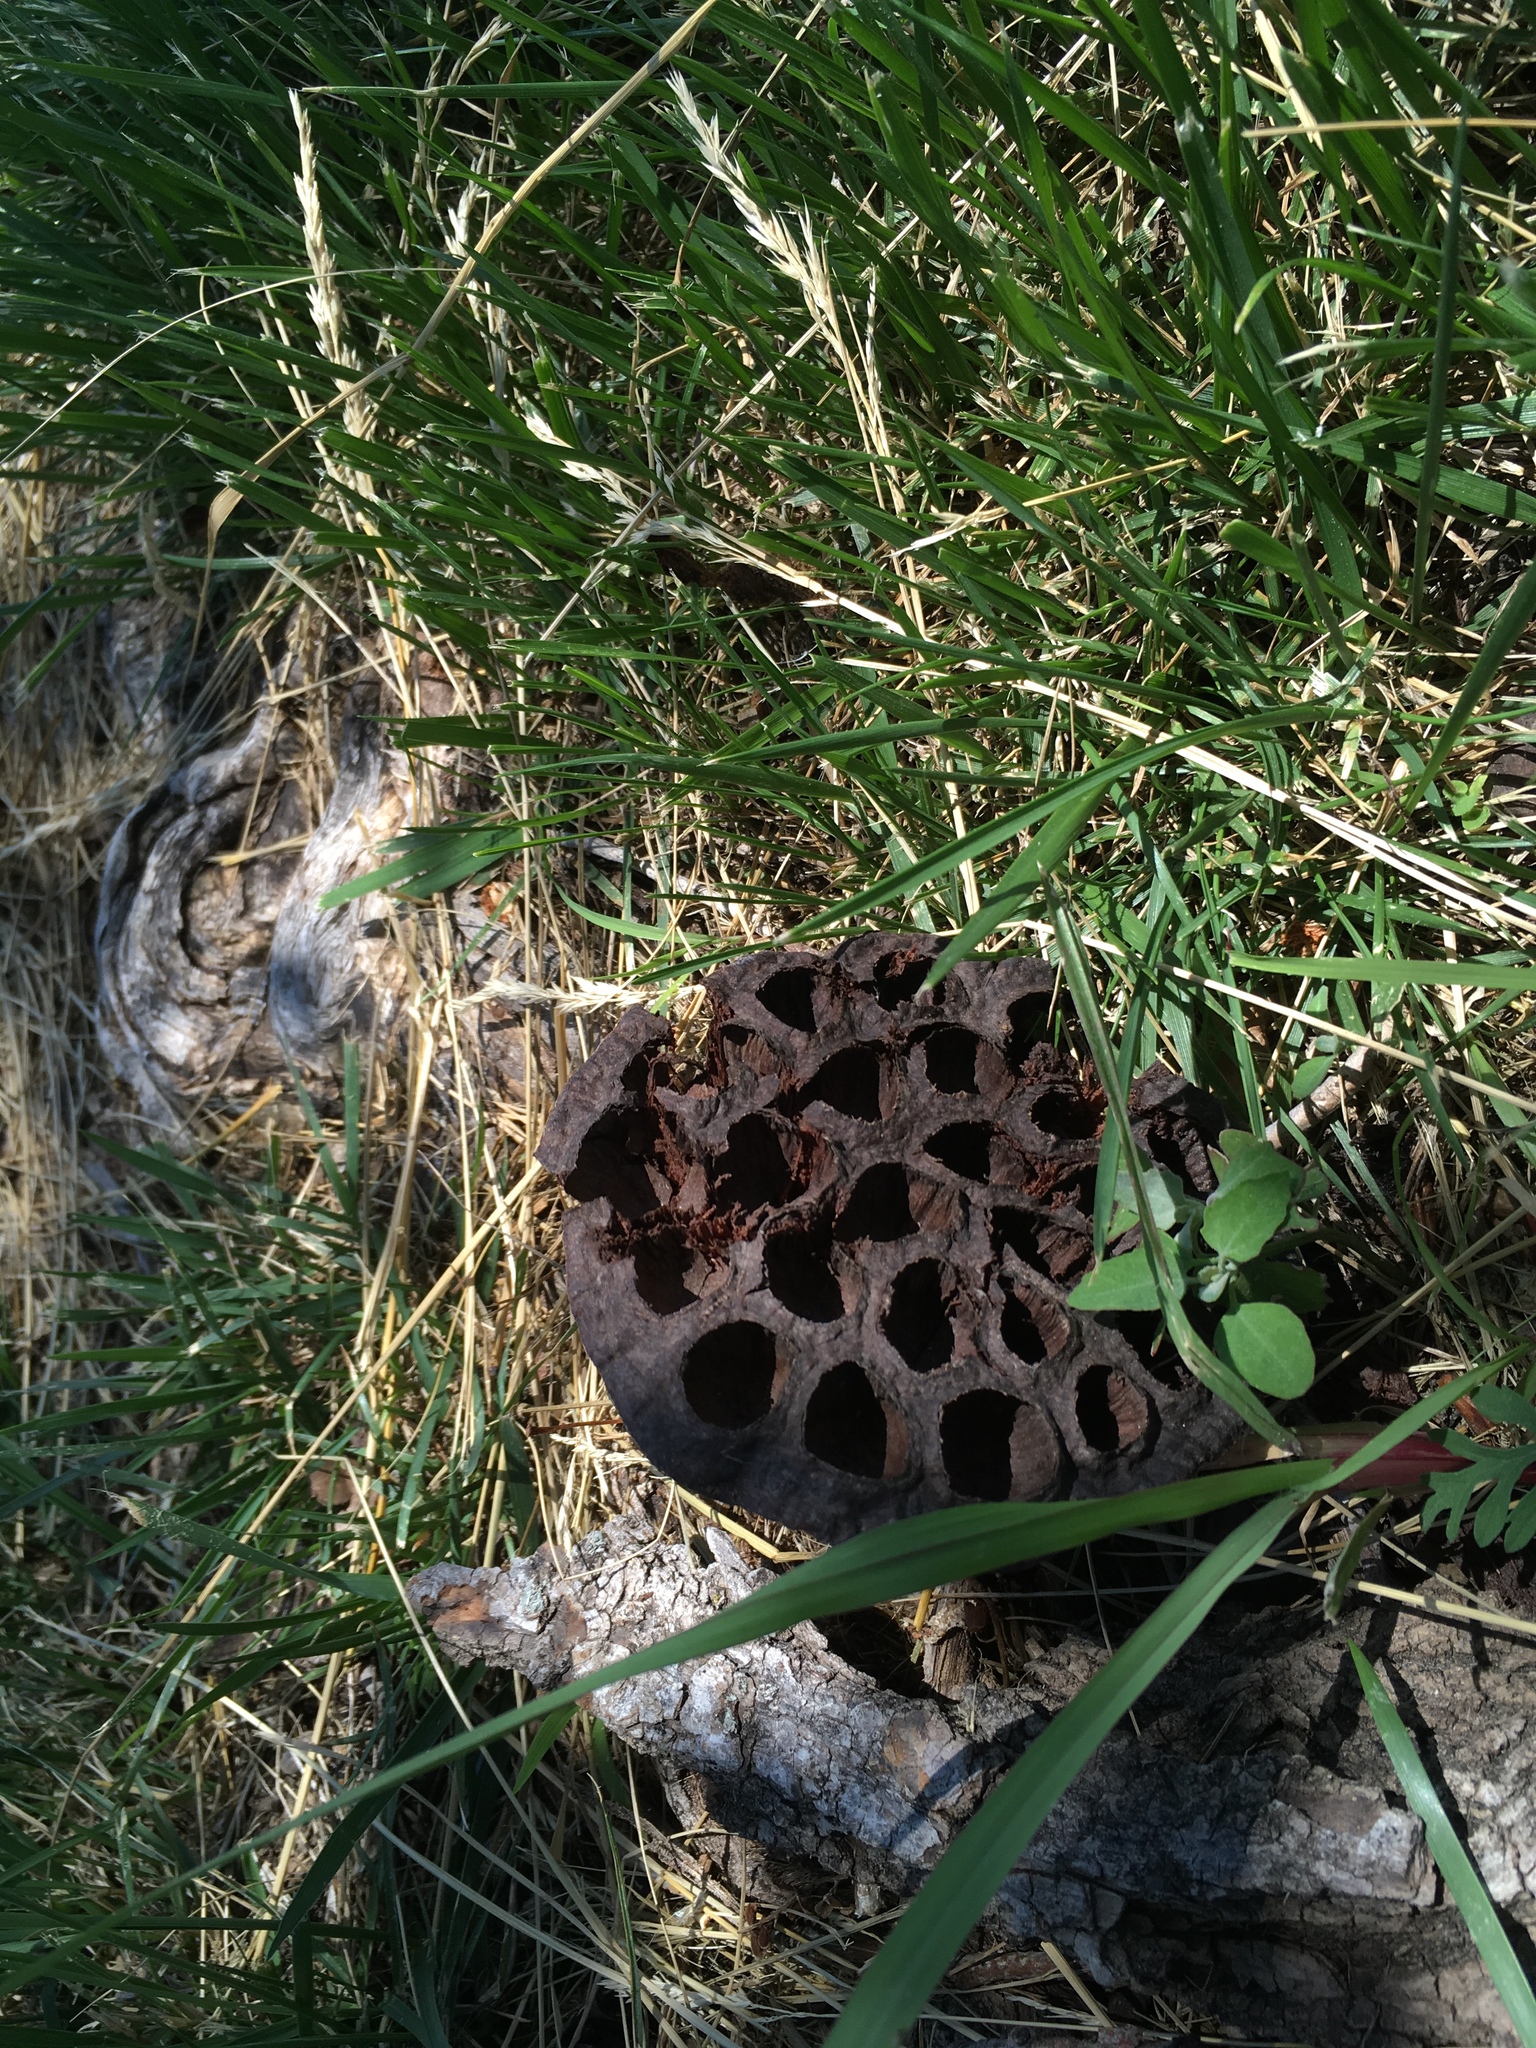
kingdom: Plantae
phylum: Tracheophyta
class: Magnoliopsida
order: Proteales
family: Nelumbonaceae
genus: Nelumbo
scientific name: Nelumbo lutea
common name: American lotus
